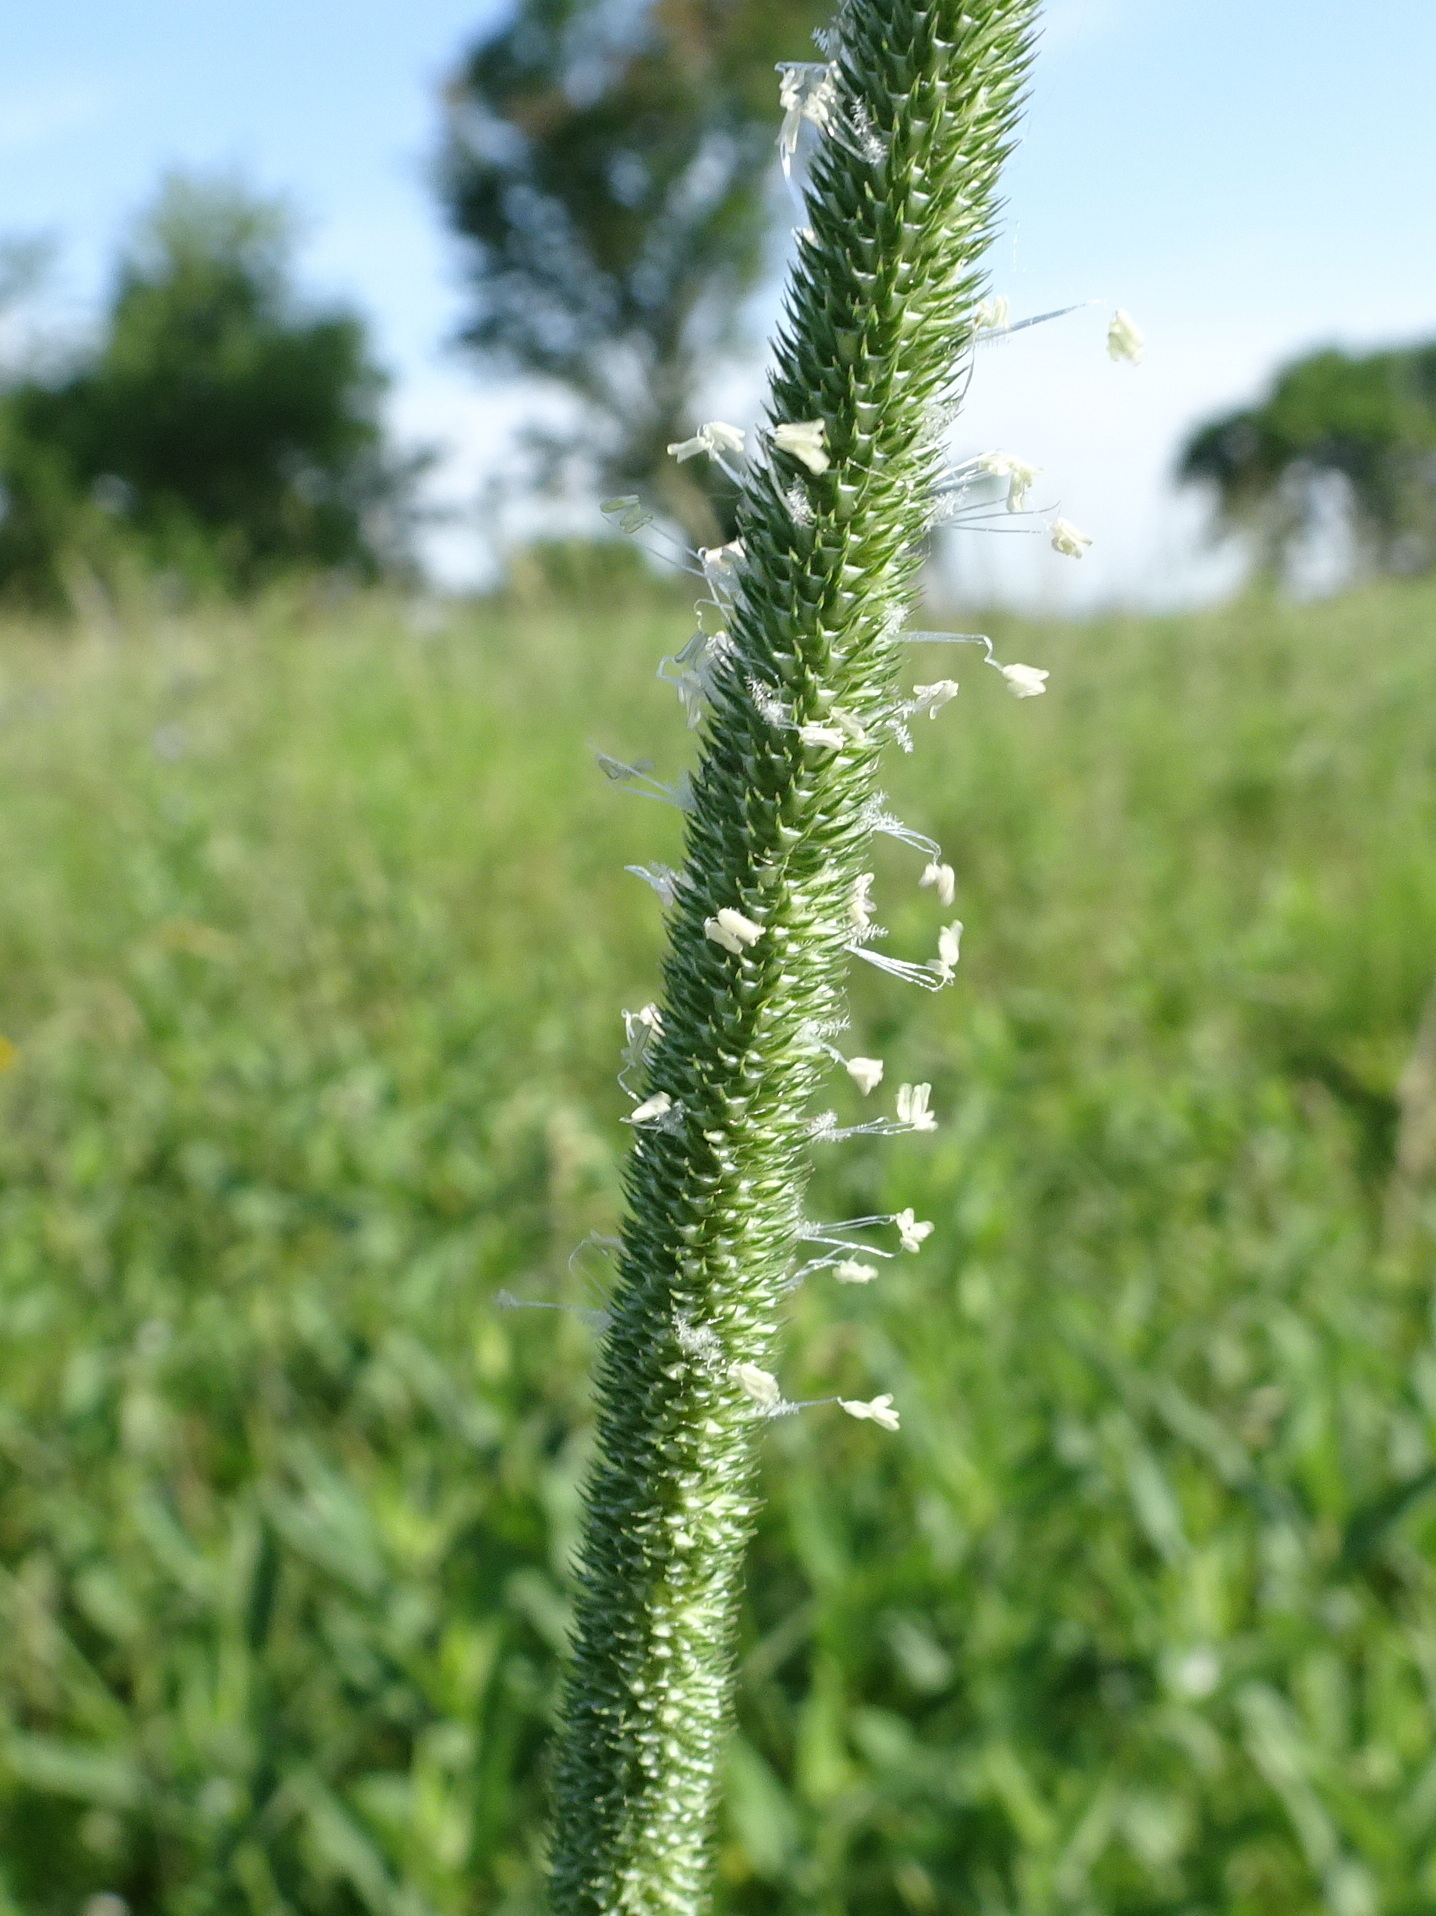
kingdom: Plantae
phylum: Tracheophyta
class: Liliopsida
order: Poales
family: Poaceae
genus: Phleum
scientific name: Phleum pratense
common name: Timothy grass
